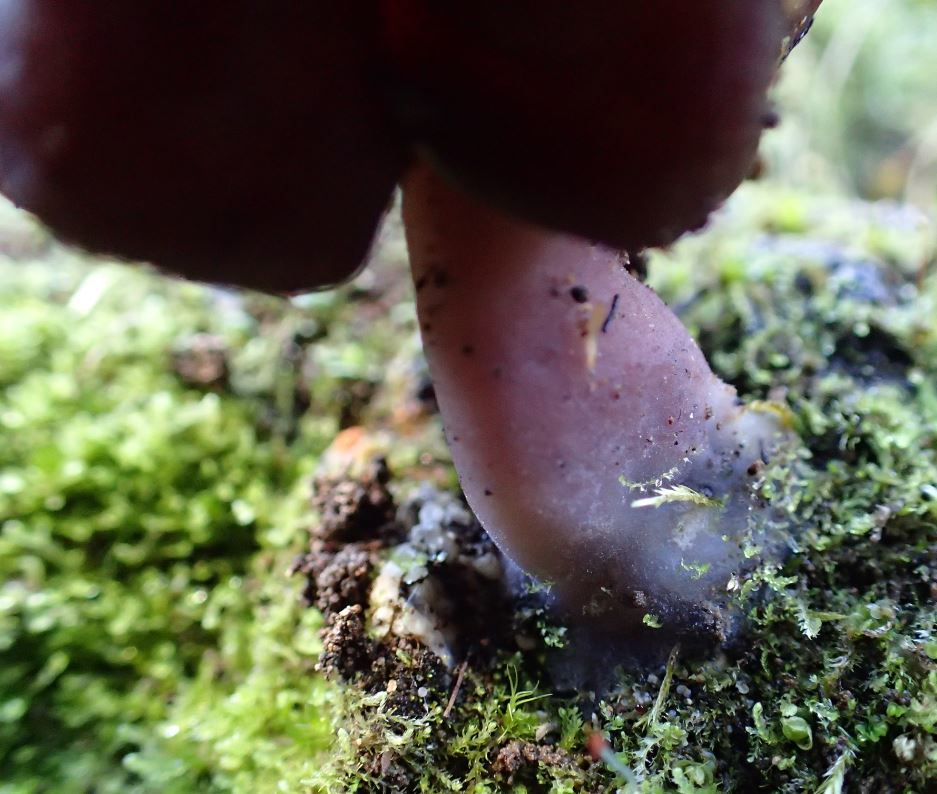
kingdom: Fungi
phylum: Ascomycota
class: Pezizomycetes
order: Pezizales
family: Discinaceae
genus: Gyromitra
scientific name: Gyromitra tasmanica
